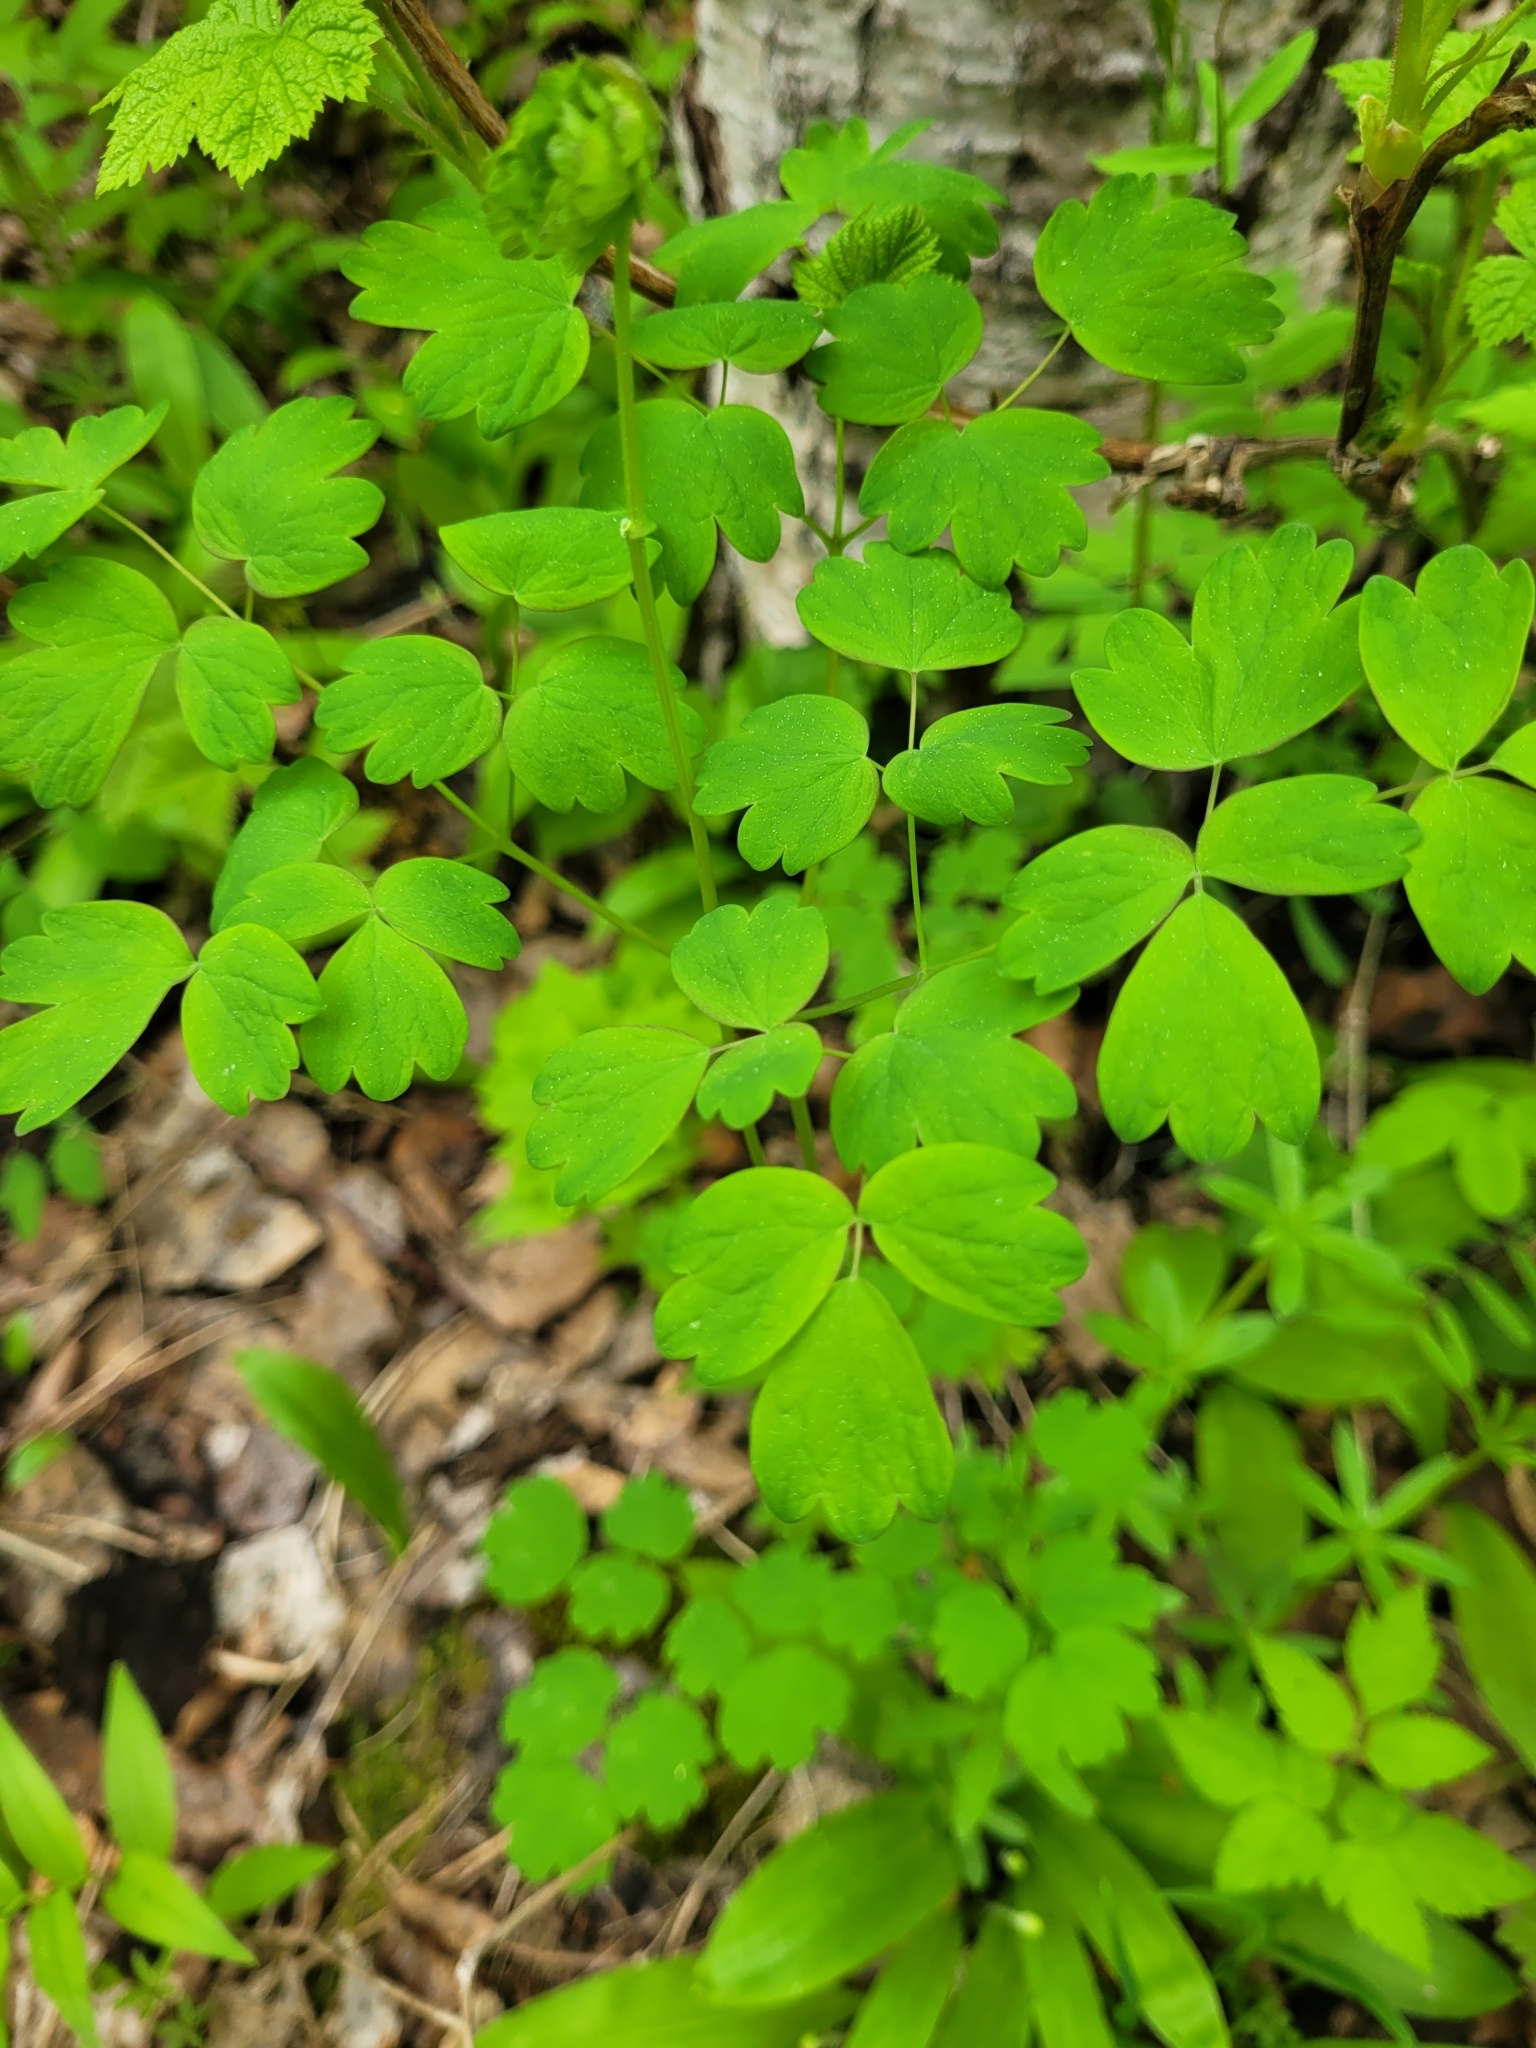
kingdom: Plantae
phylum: Tracheophyta
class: Magnoliopsida
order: Ranunculales
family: Ranunculaceae
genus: Thalictrum
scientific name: Thalictrum occidentale
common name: Western meadow-rue
